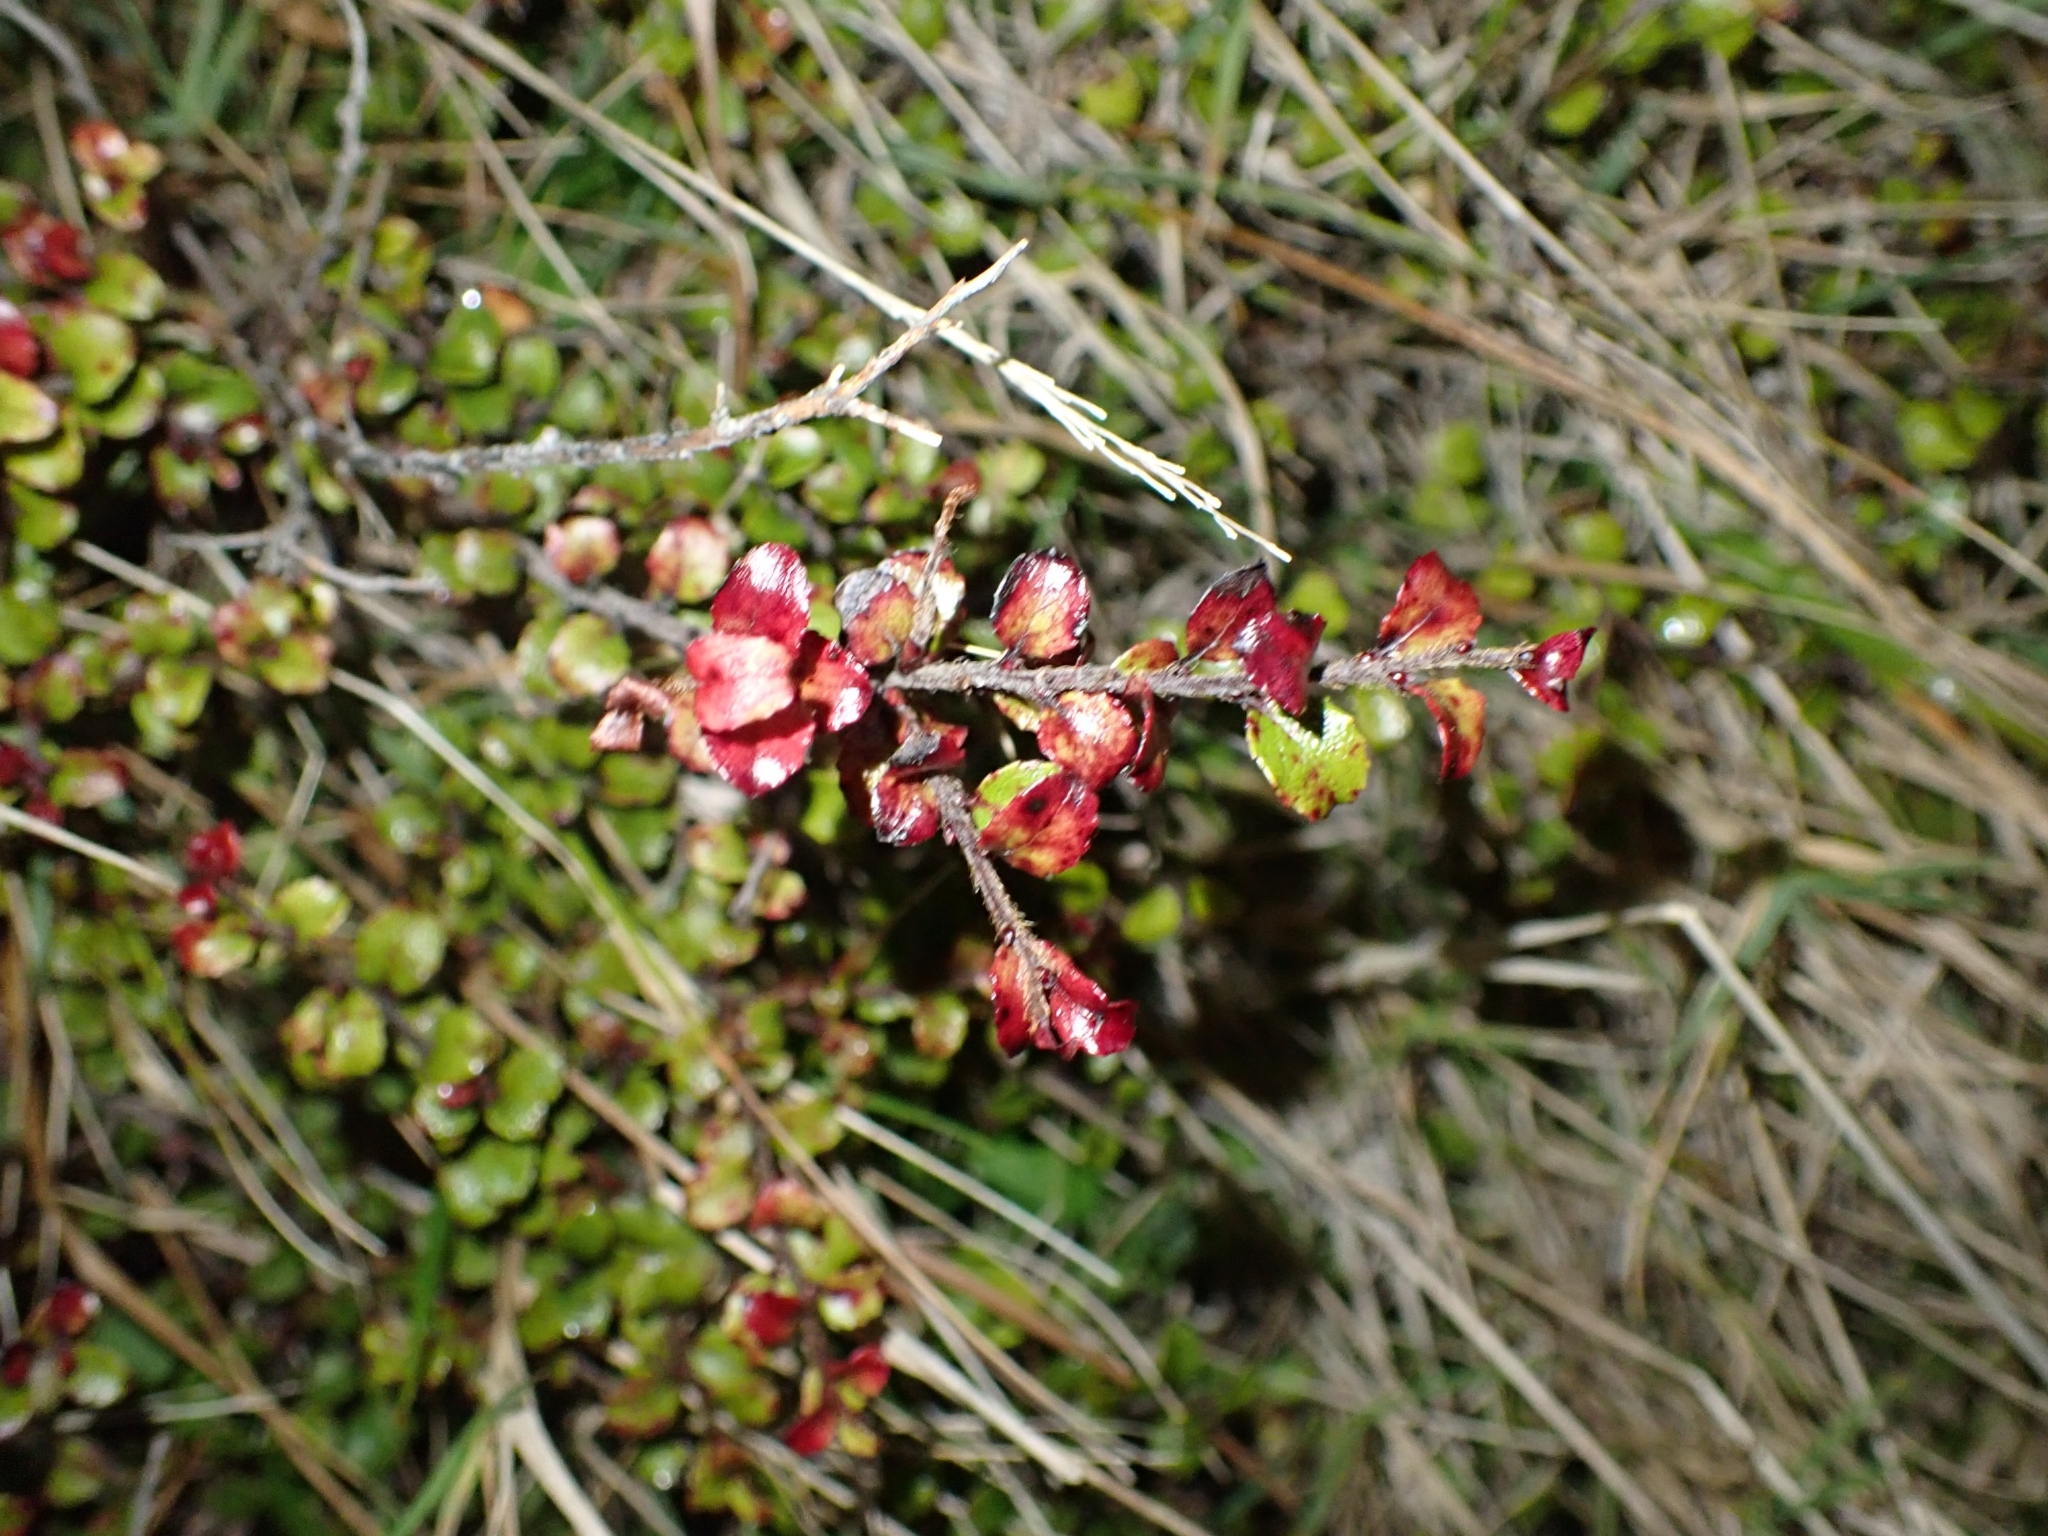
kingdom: Plantae
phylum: Tracheophyta
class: Magnoliopsida
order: Ericales
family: Ericaceae
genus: Gaultheria
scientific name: Gaultheria antipoda
